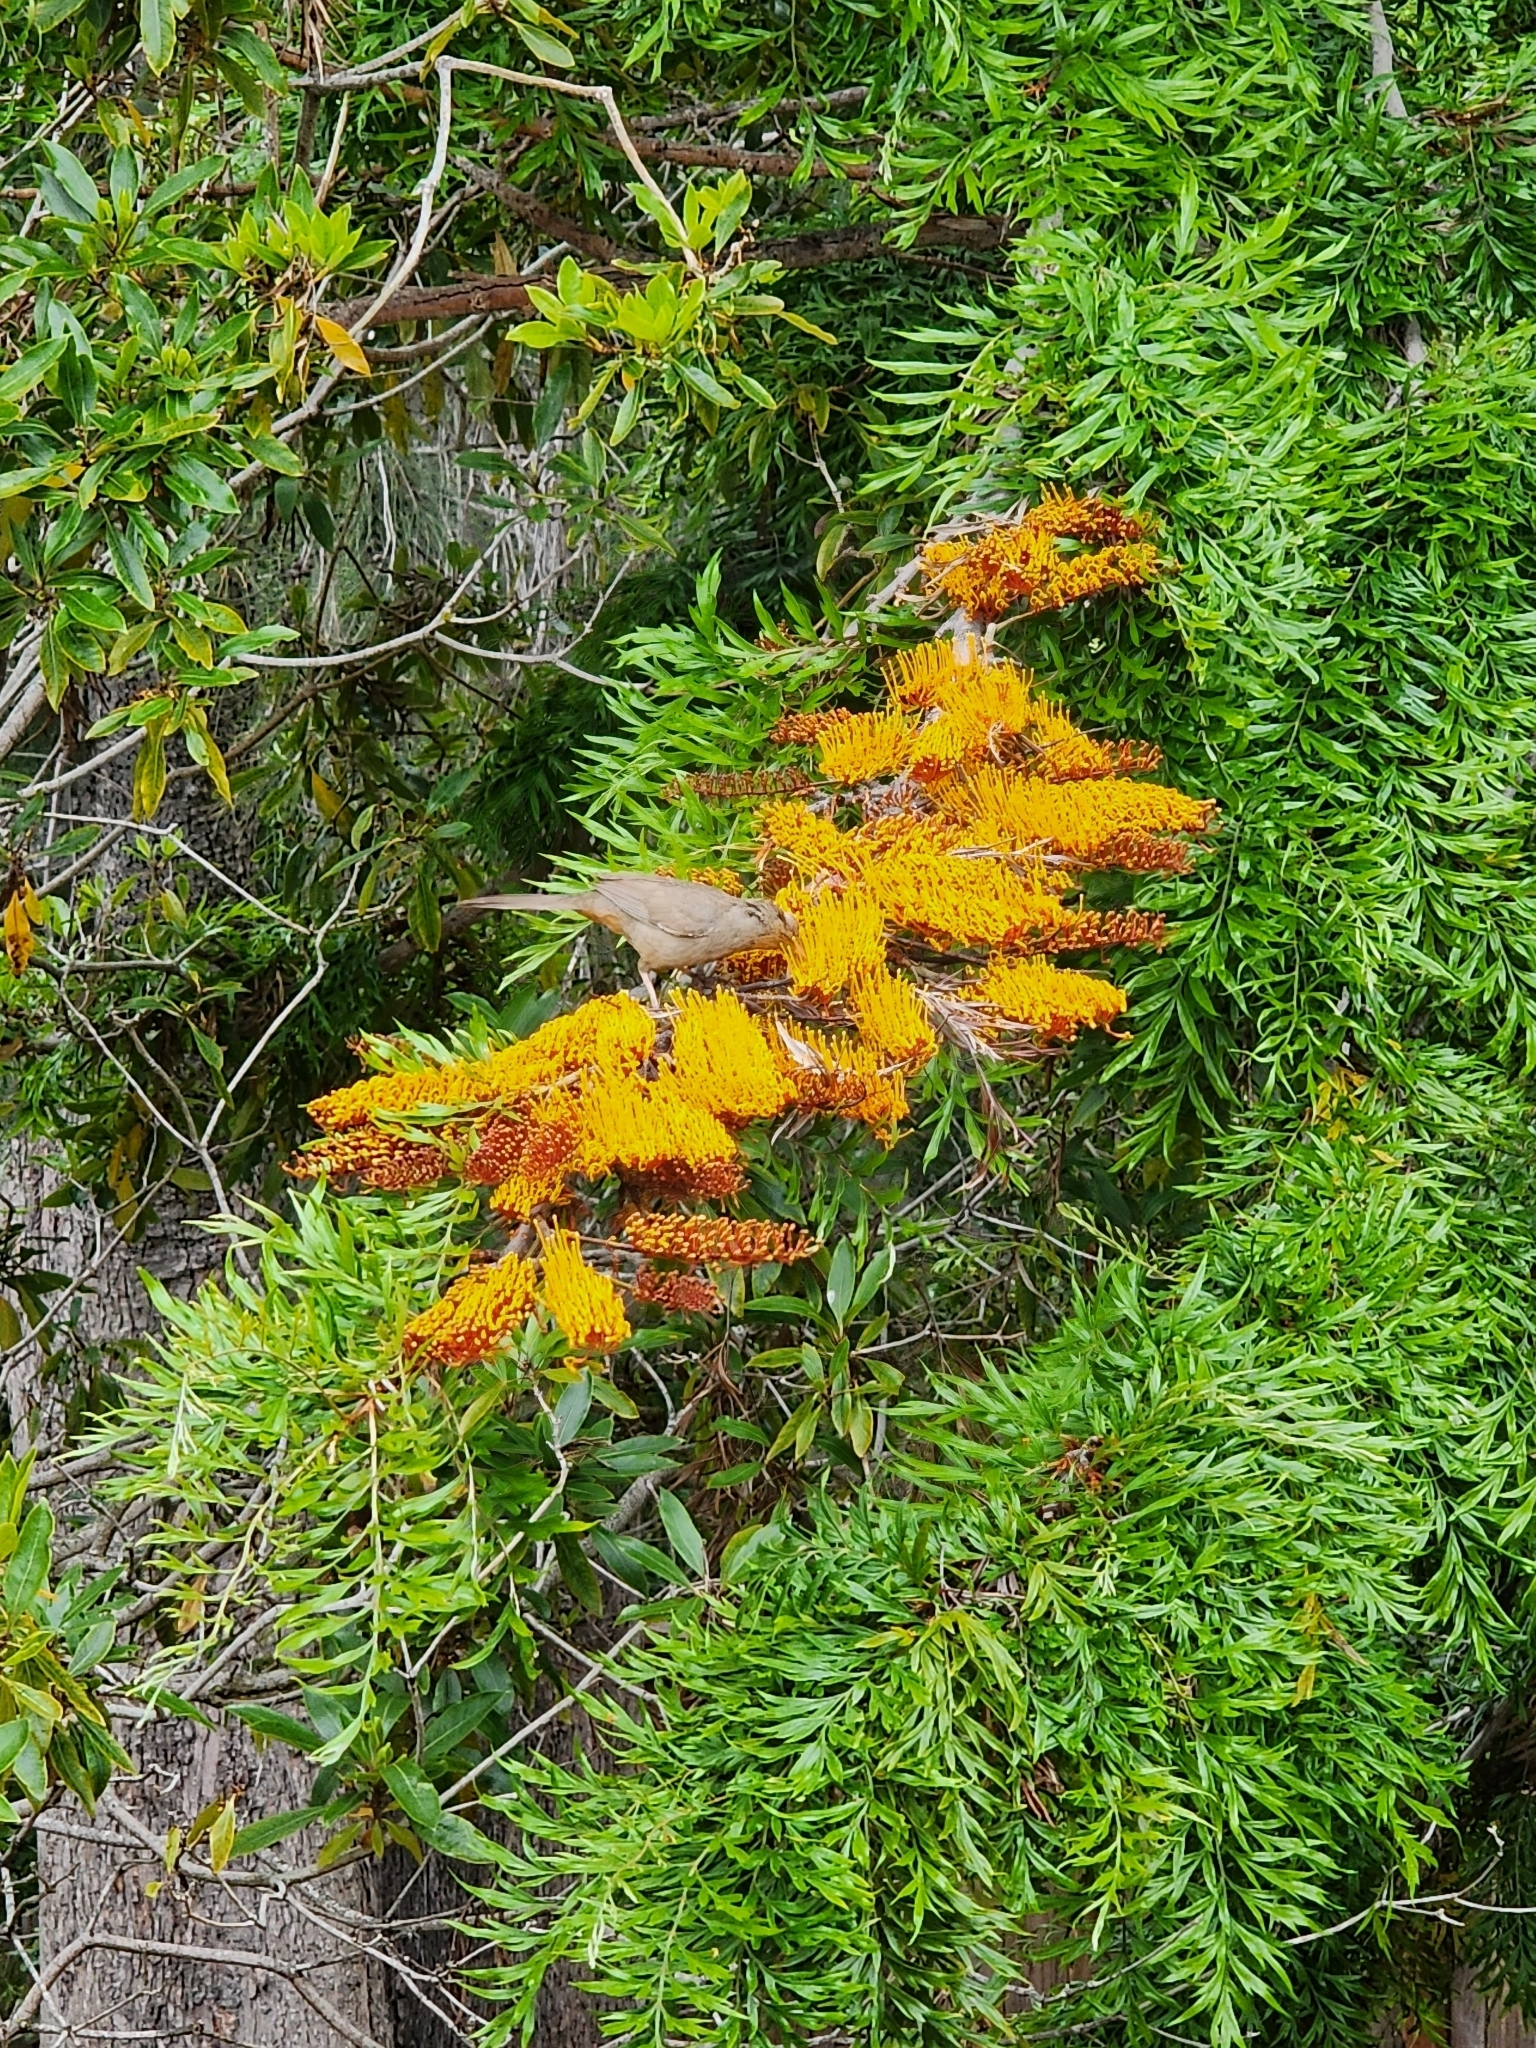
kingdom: Animalia
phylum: Chordata
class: Aves
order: Passeriformes
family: Passerellidae
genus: Melozone
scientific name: Melozone crissalis
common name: California towhee
